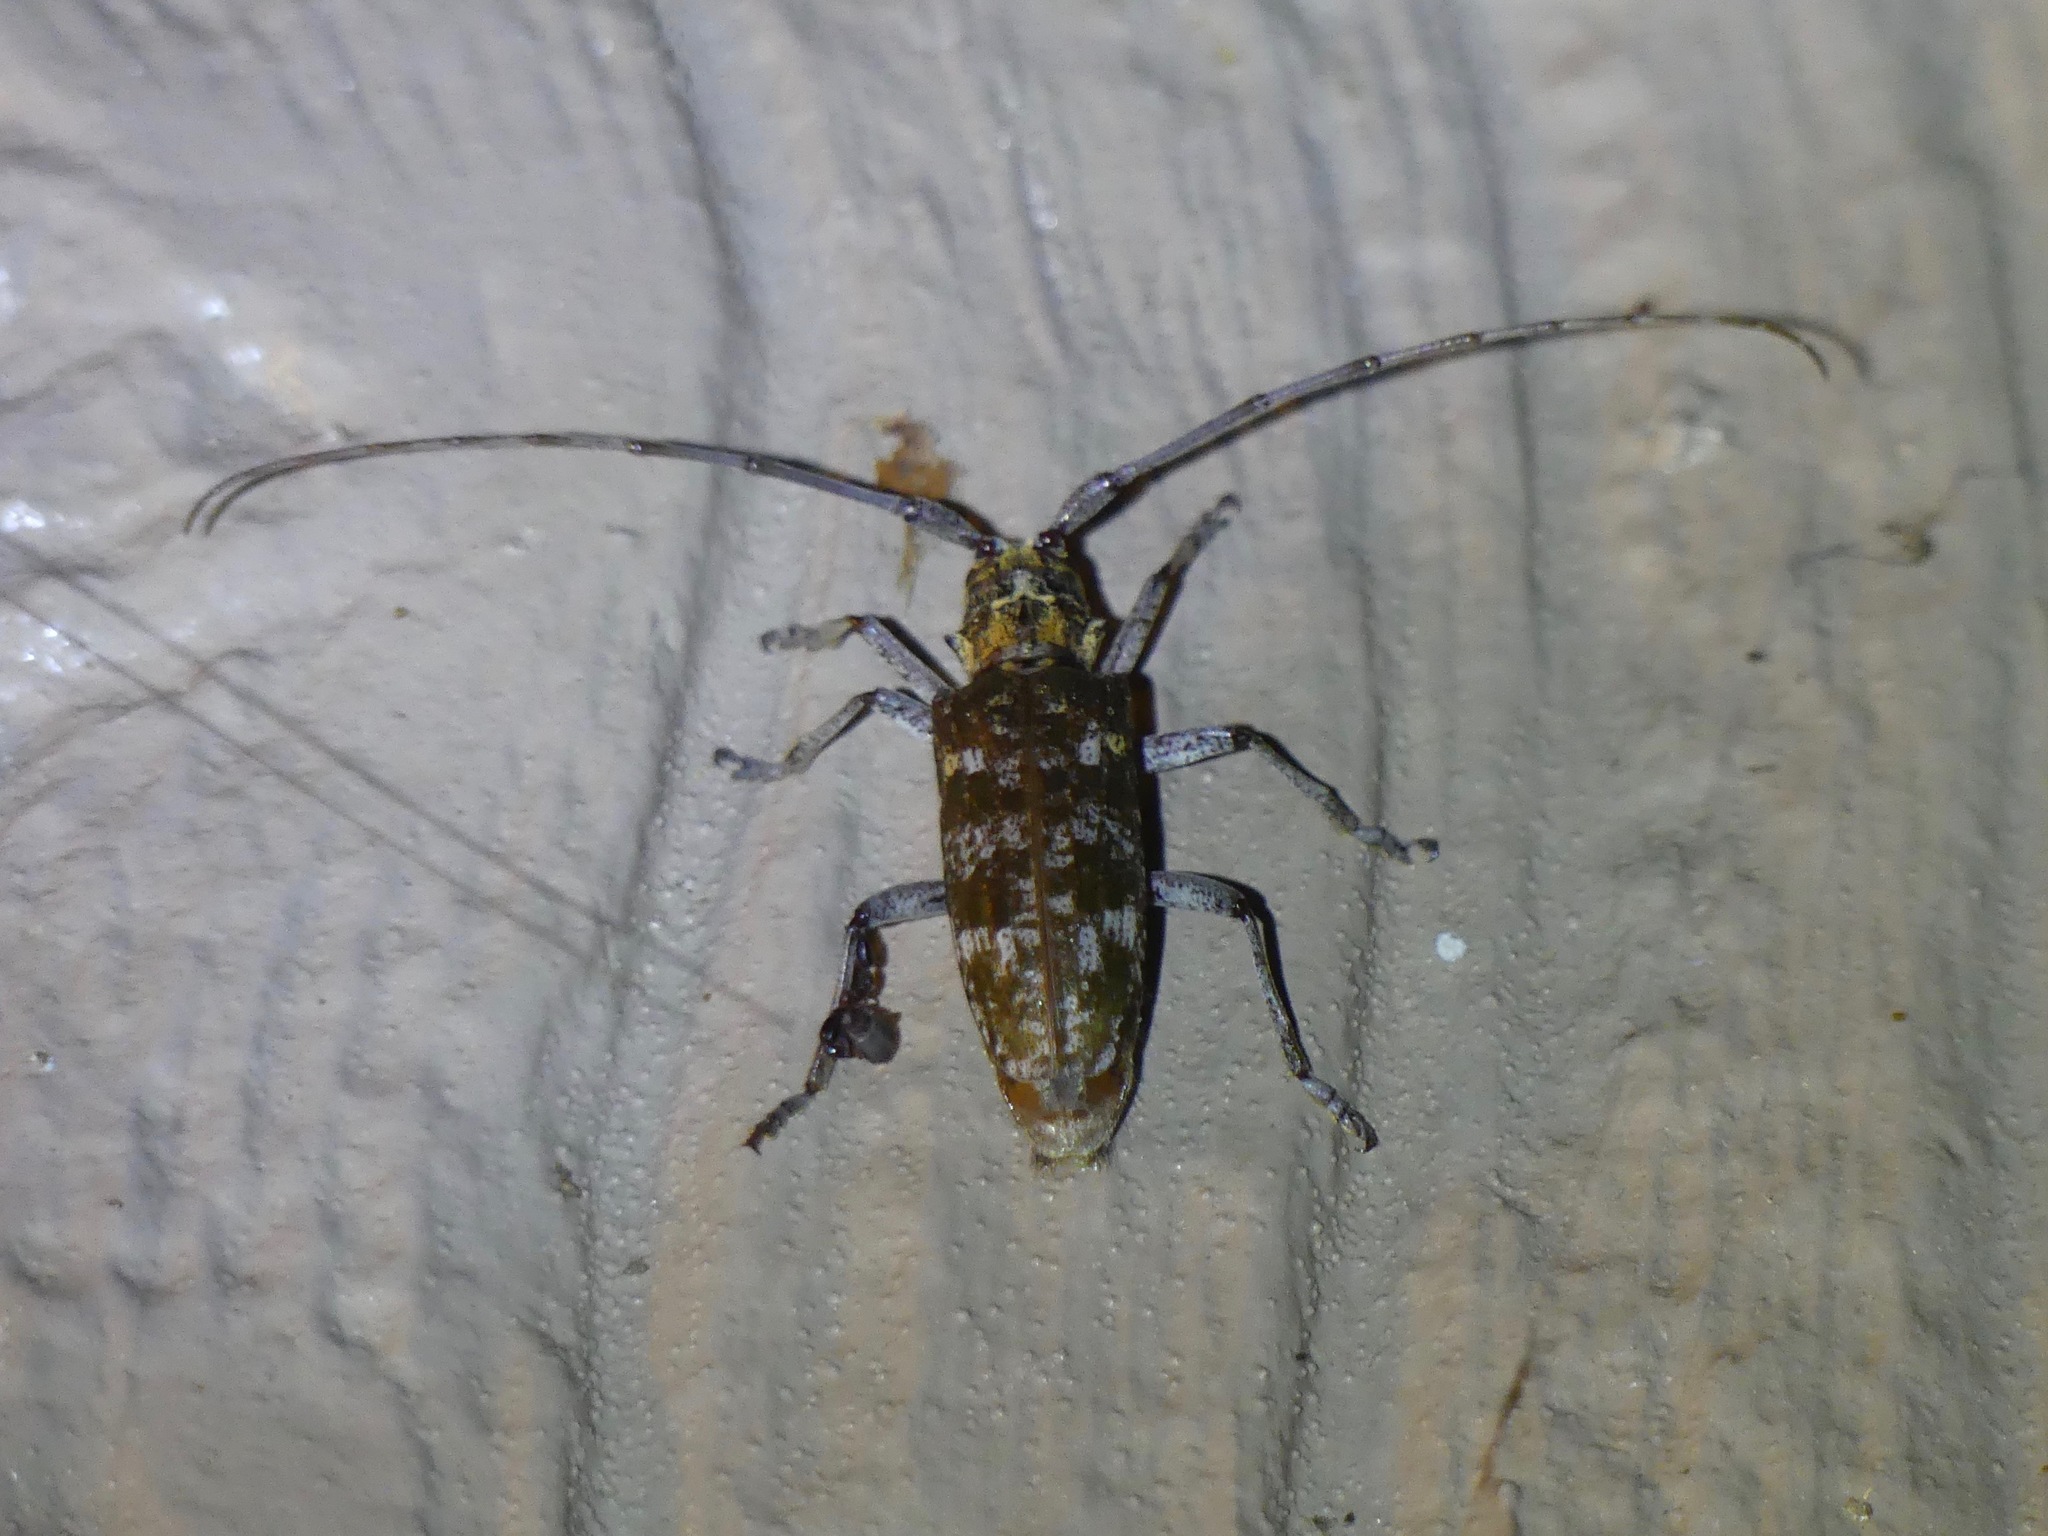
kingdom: Animalia
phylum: Arthropoda
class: Insecta
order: Coleoptera
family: Cerambycidae
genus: Monochamus
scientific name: Monochamus titillator
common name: Southern pine sawyer
